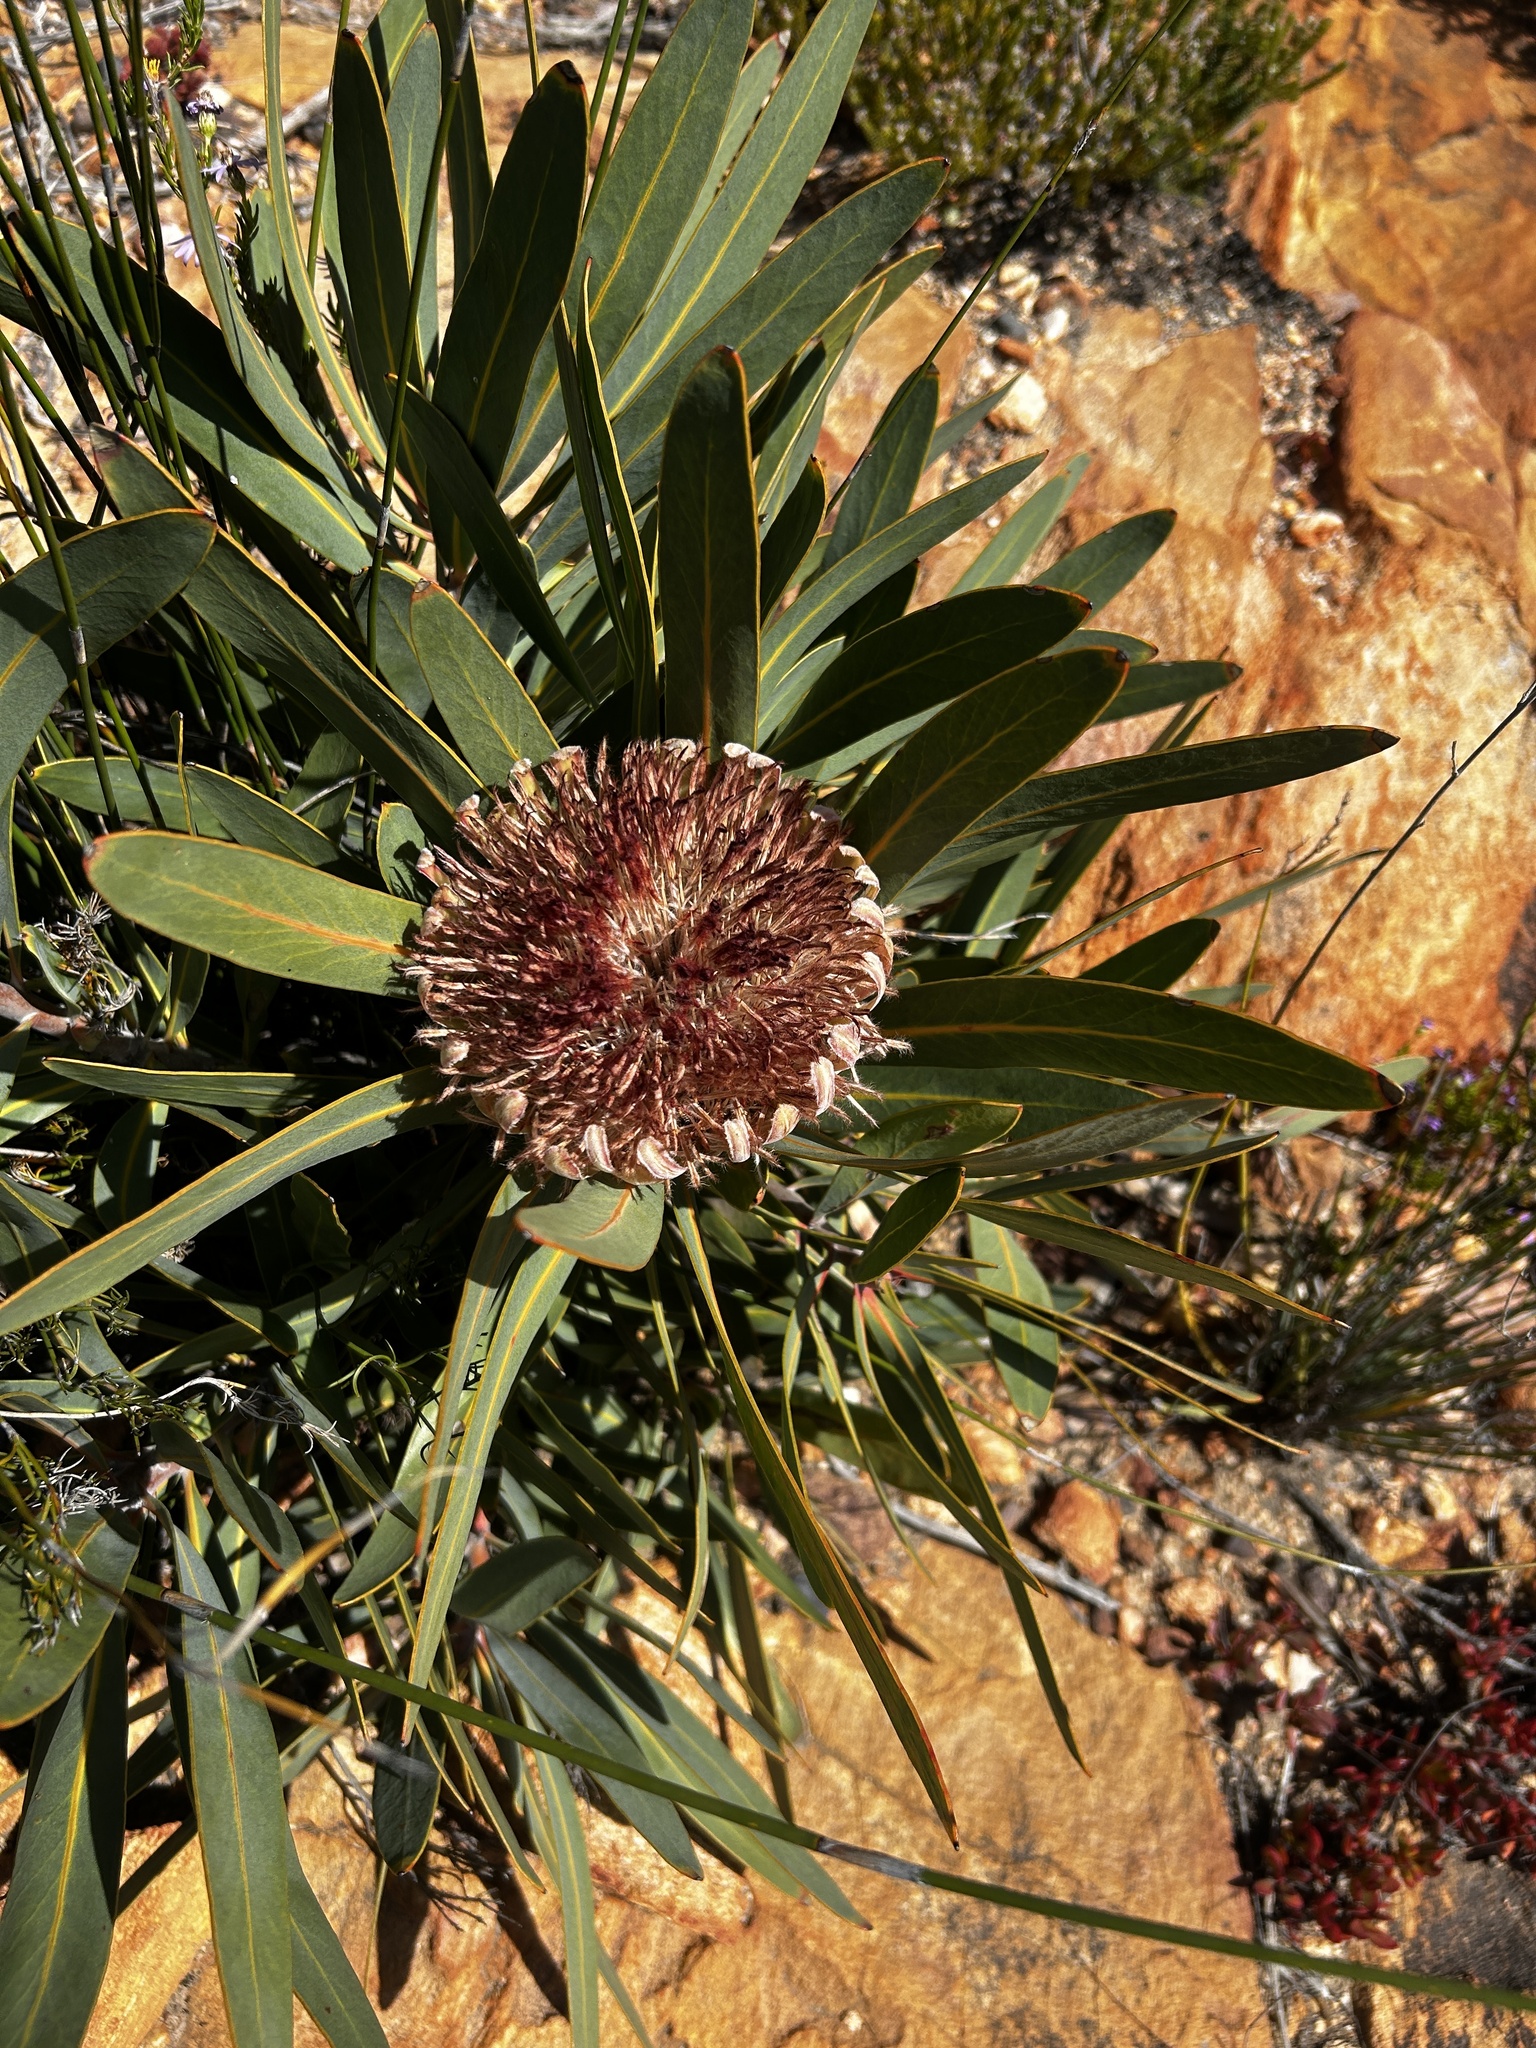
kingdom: Plantae
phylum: Tracheophyta
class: Magnoliopsida
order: Proteales
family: Proteaceae
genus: Protea
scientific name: Protea lorifolia
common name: Strap-leaved protea
